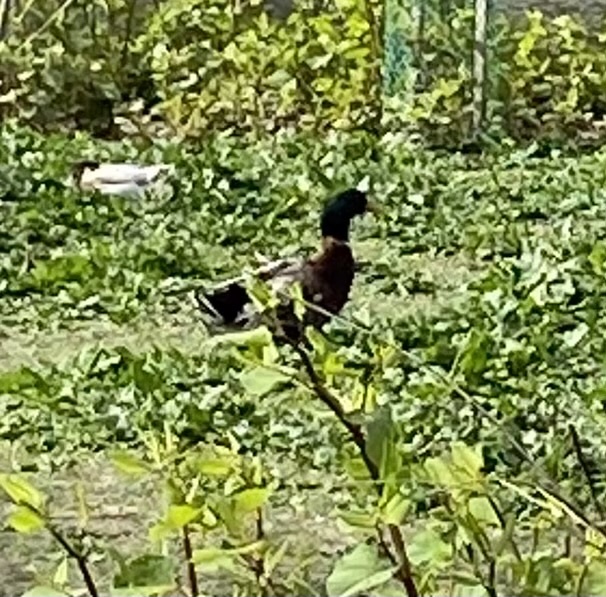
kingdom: Animalia
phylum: Chordata
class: Aves
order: Anseriformes
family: Anatidae
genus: Anas
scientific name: Anas platyrhynchos
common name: Mallard
